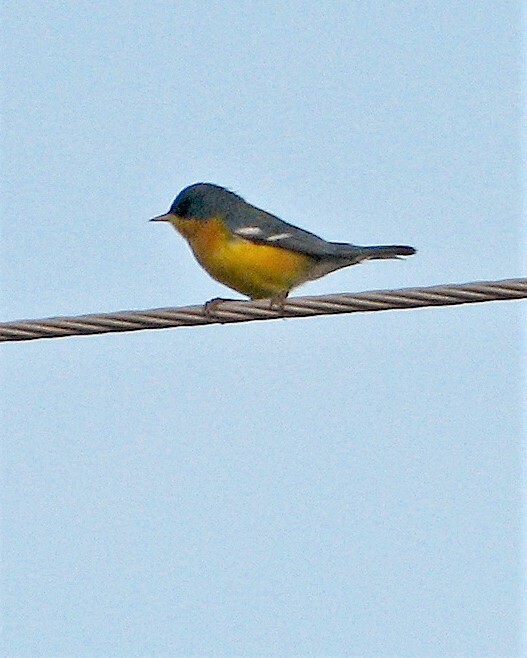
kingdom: Animalia
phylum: Chordata
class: Aves
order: Passeriformes
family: Parulidae
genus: Setophaga
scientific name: Setophaga pitiayumi
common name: Tropical parula
